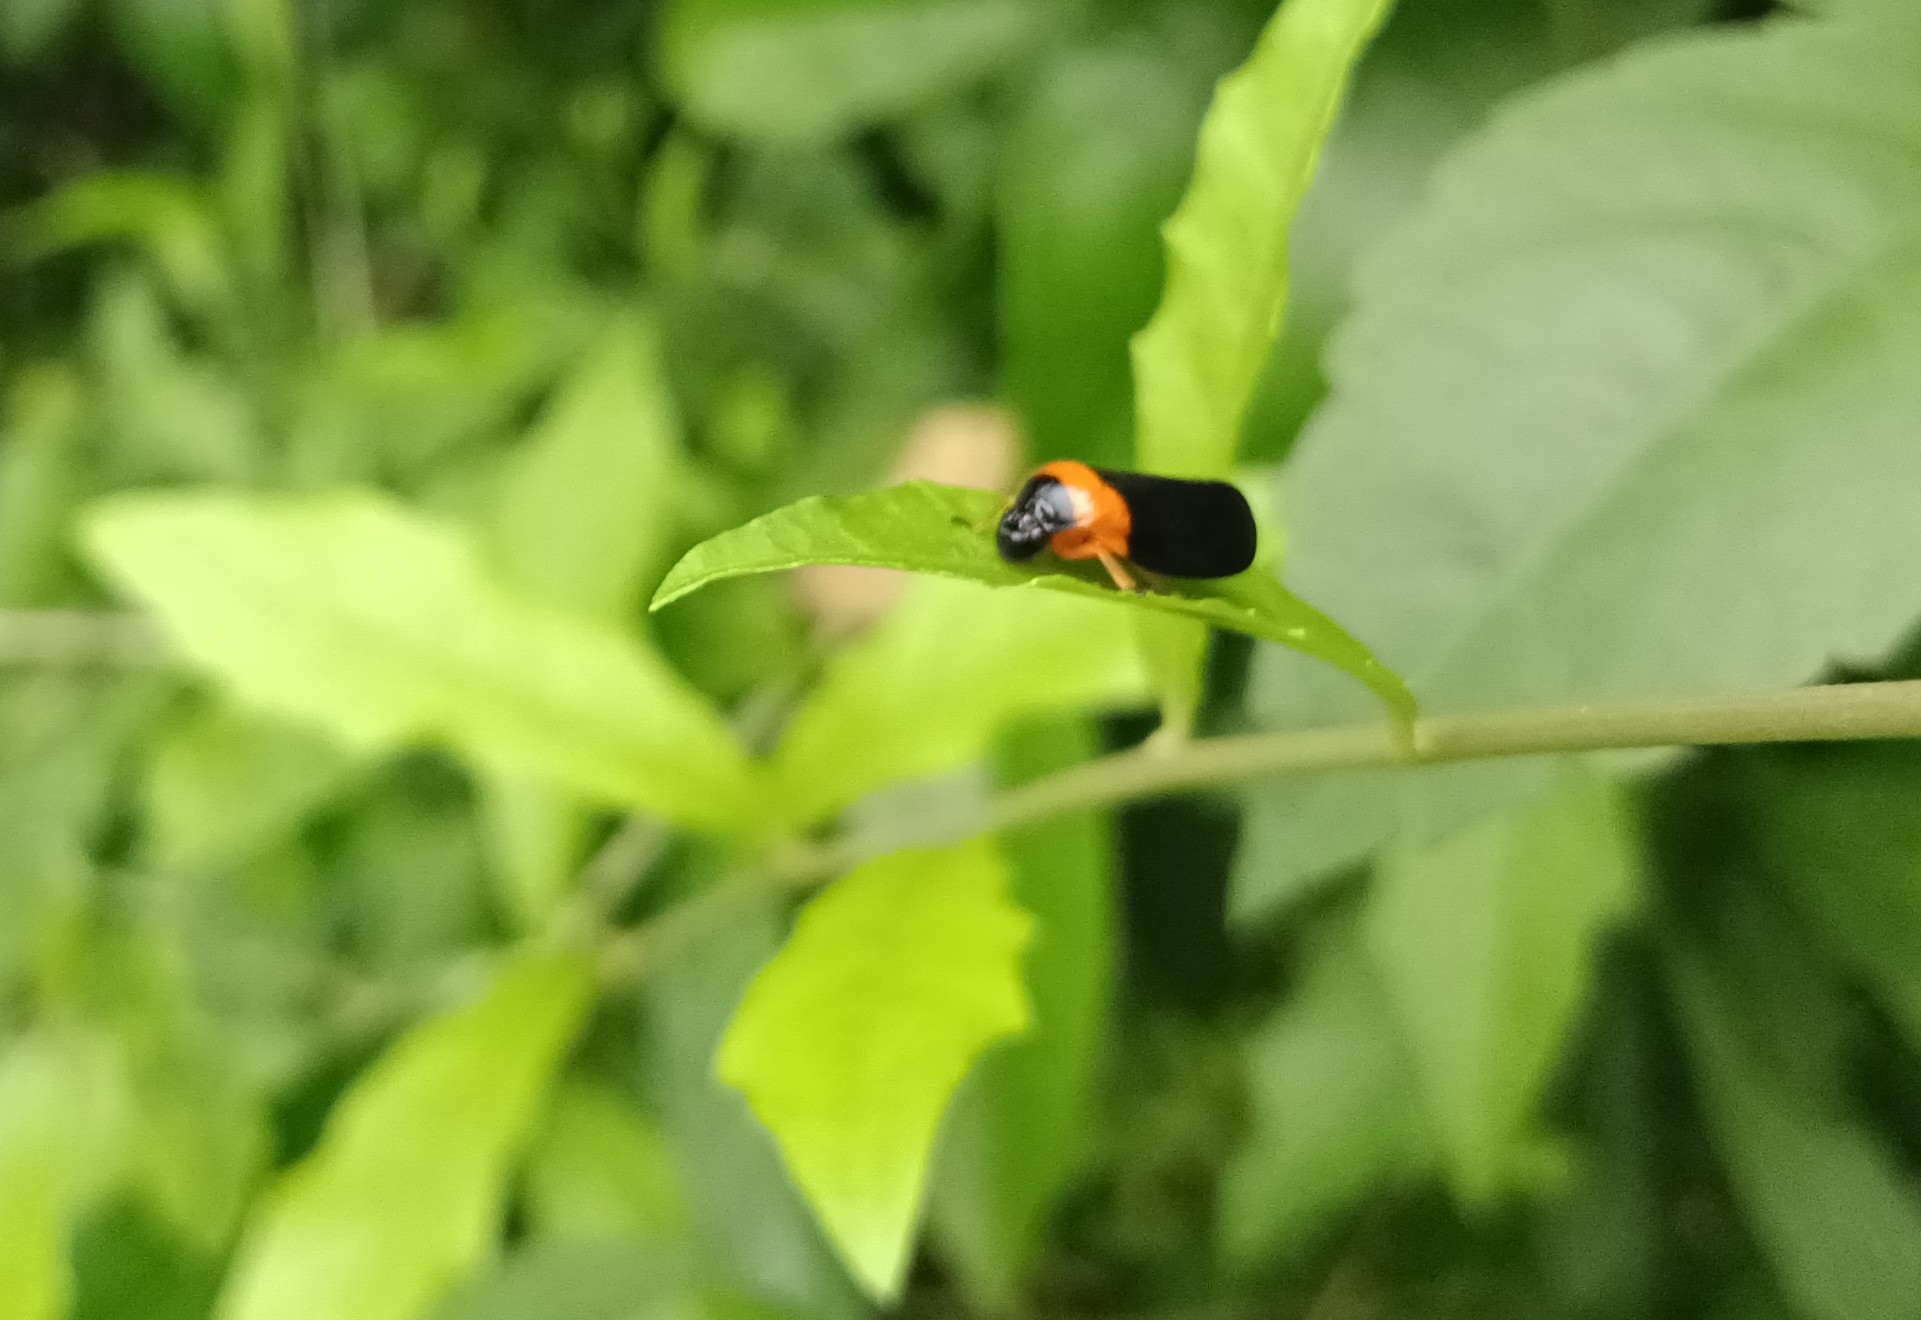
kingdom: Animalia
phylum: Arthropoda
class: Insecta
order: Hemiptera
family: Cercopidae
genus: Phymatostetha
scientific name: Phymatostetha deschampsi
